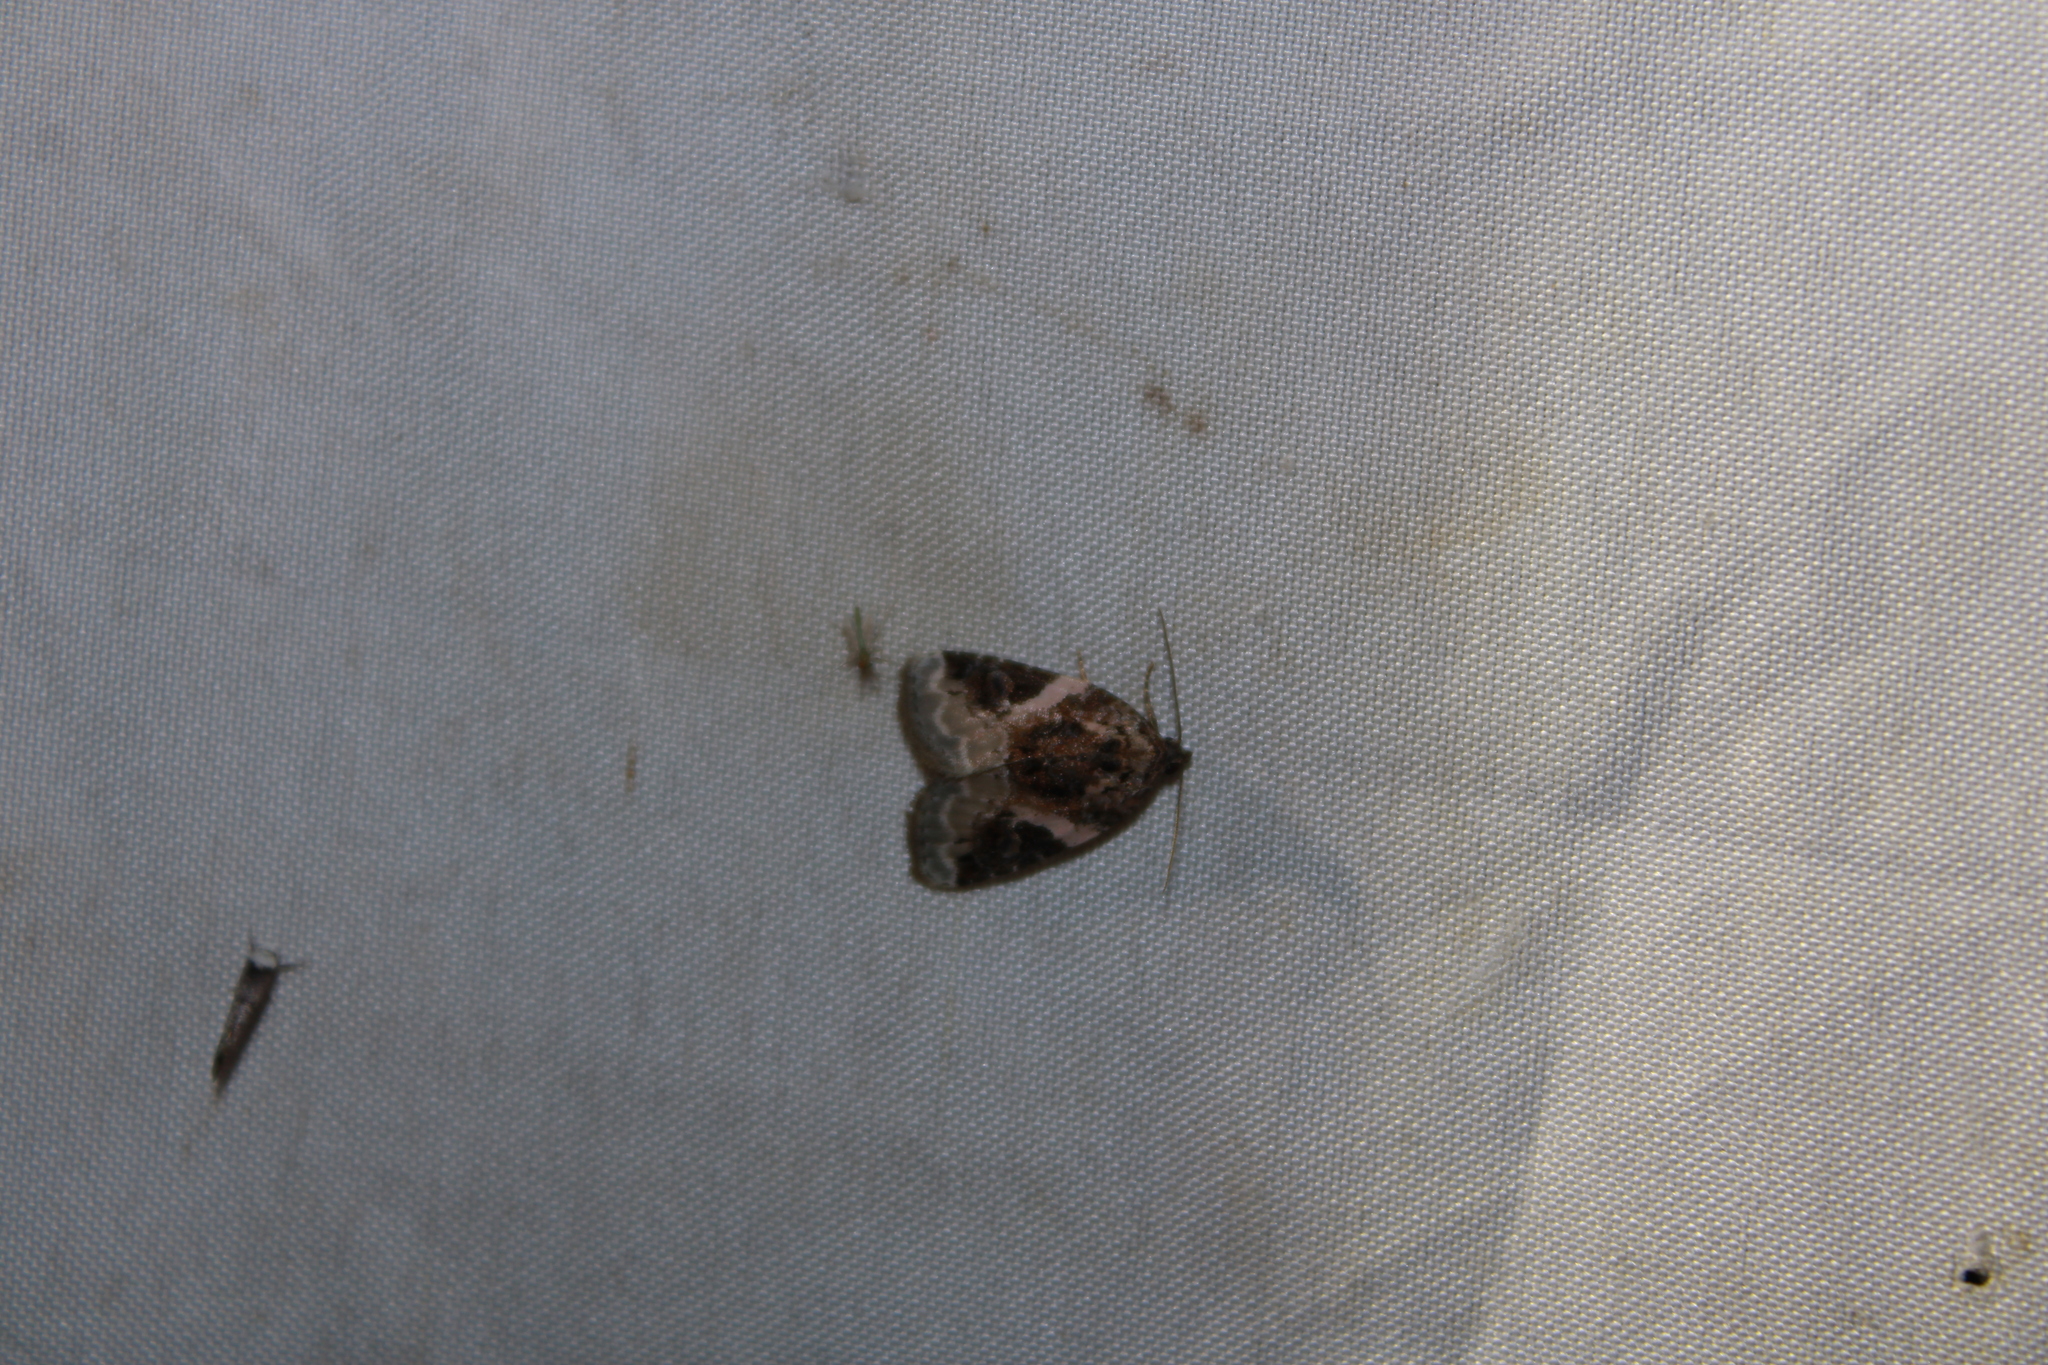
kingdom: Animalia
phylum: Arthropoda
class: Insecta
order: Lepidoptera
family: Noctuidae
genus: Pseudeustrotia
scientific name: Pseudeustrotia carneola
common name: Pink-barred lithacodia moth
